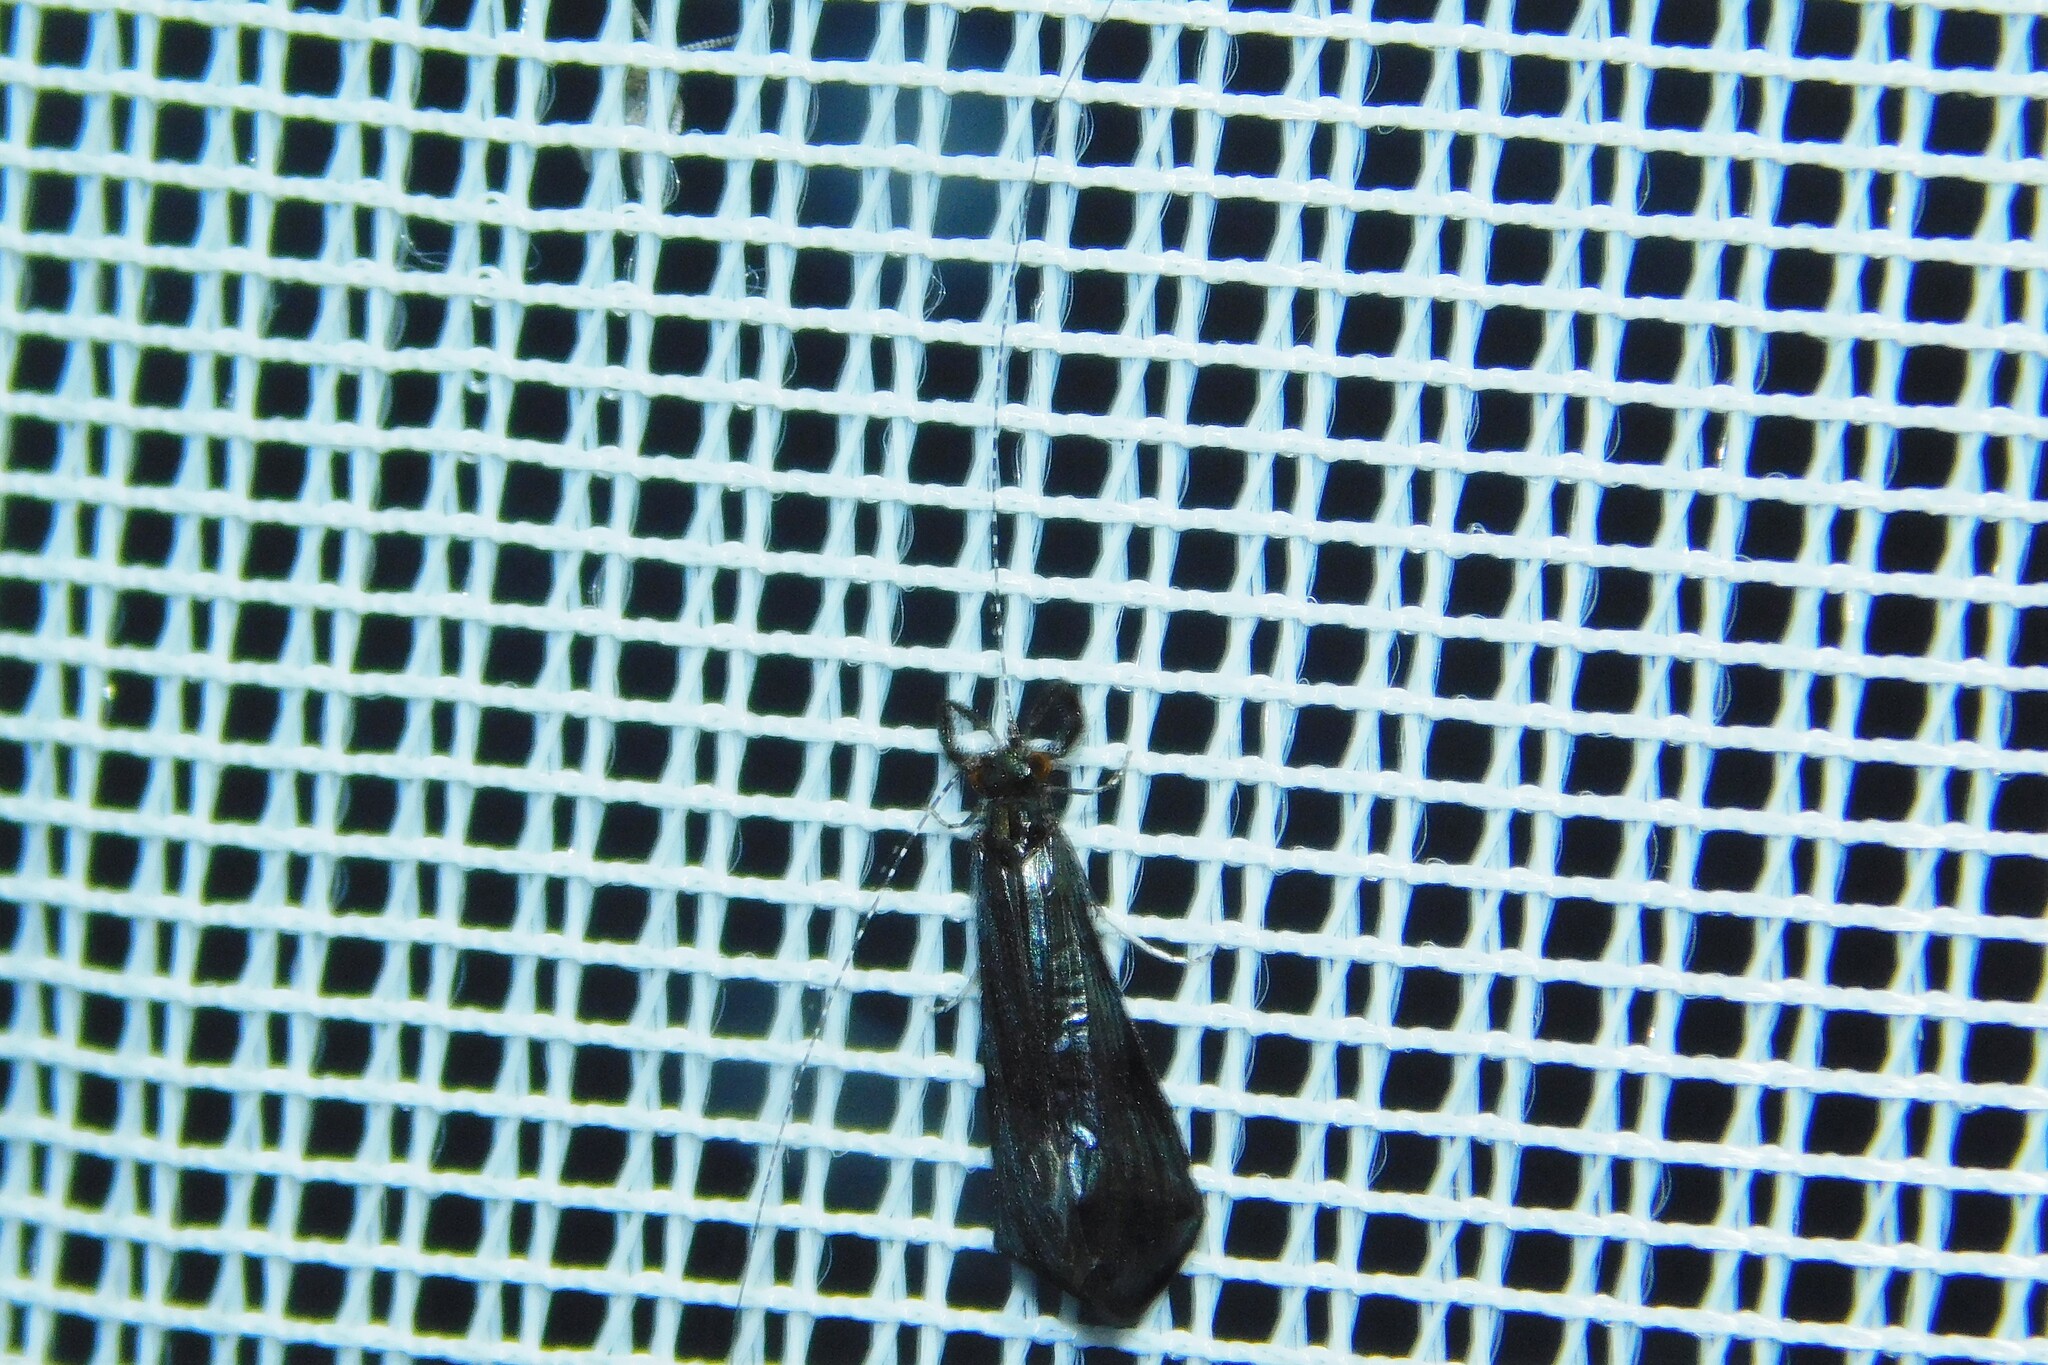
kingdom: Animalia
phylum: Arthropoda
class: Insecta
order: Trichoptera
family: Leptoceridae
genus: Mystacides
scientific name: Mystacides azureus
